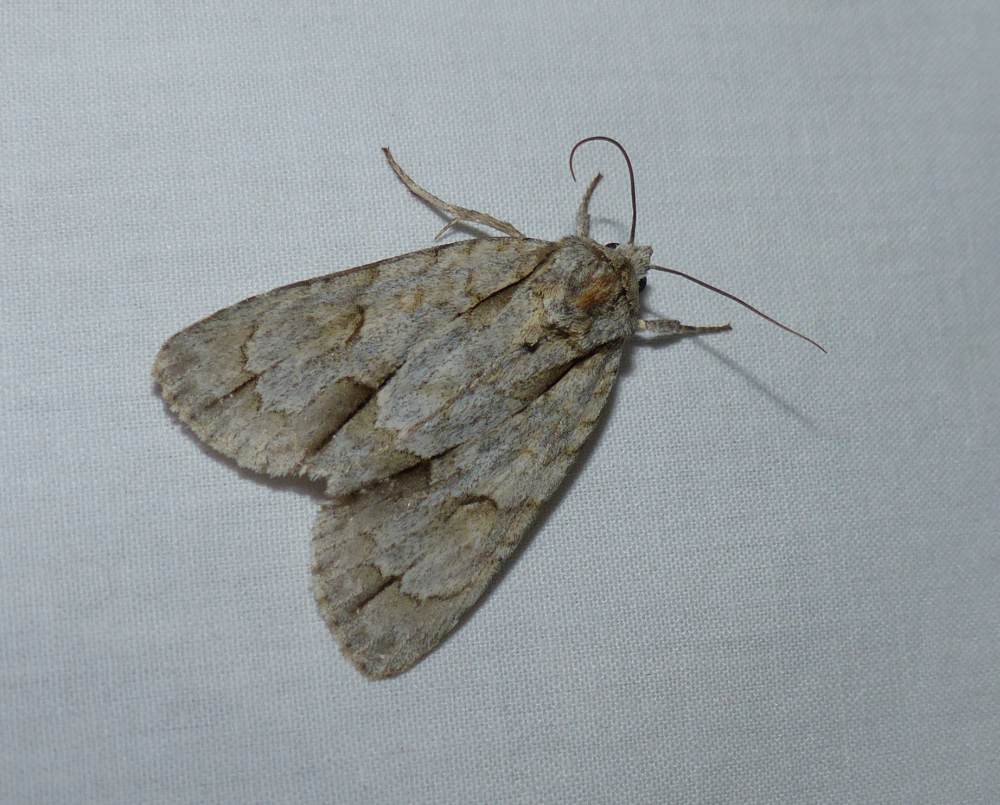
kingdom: Animalia
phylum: Arthropoda
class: Insecta
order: Lepidoptera
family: Noctuidae
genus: Acronicta
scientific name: Acronicta morula
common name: Ochre dagger
